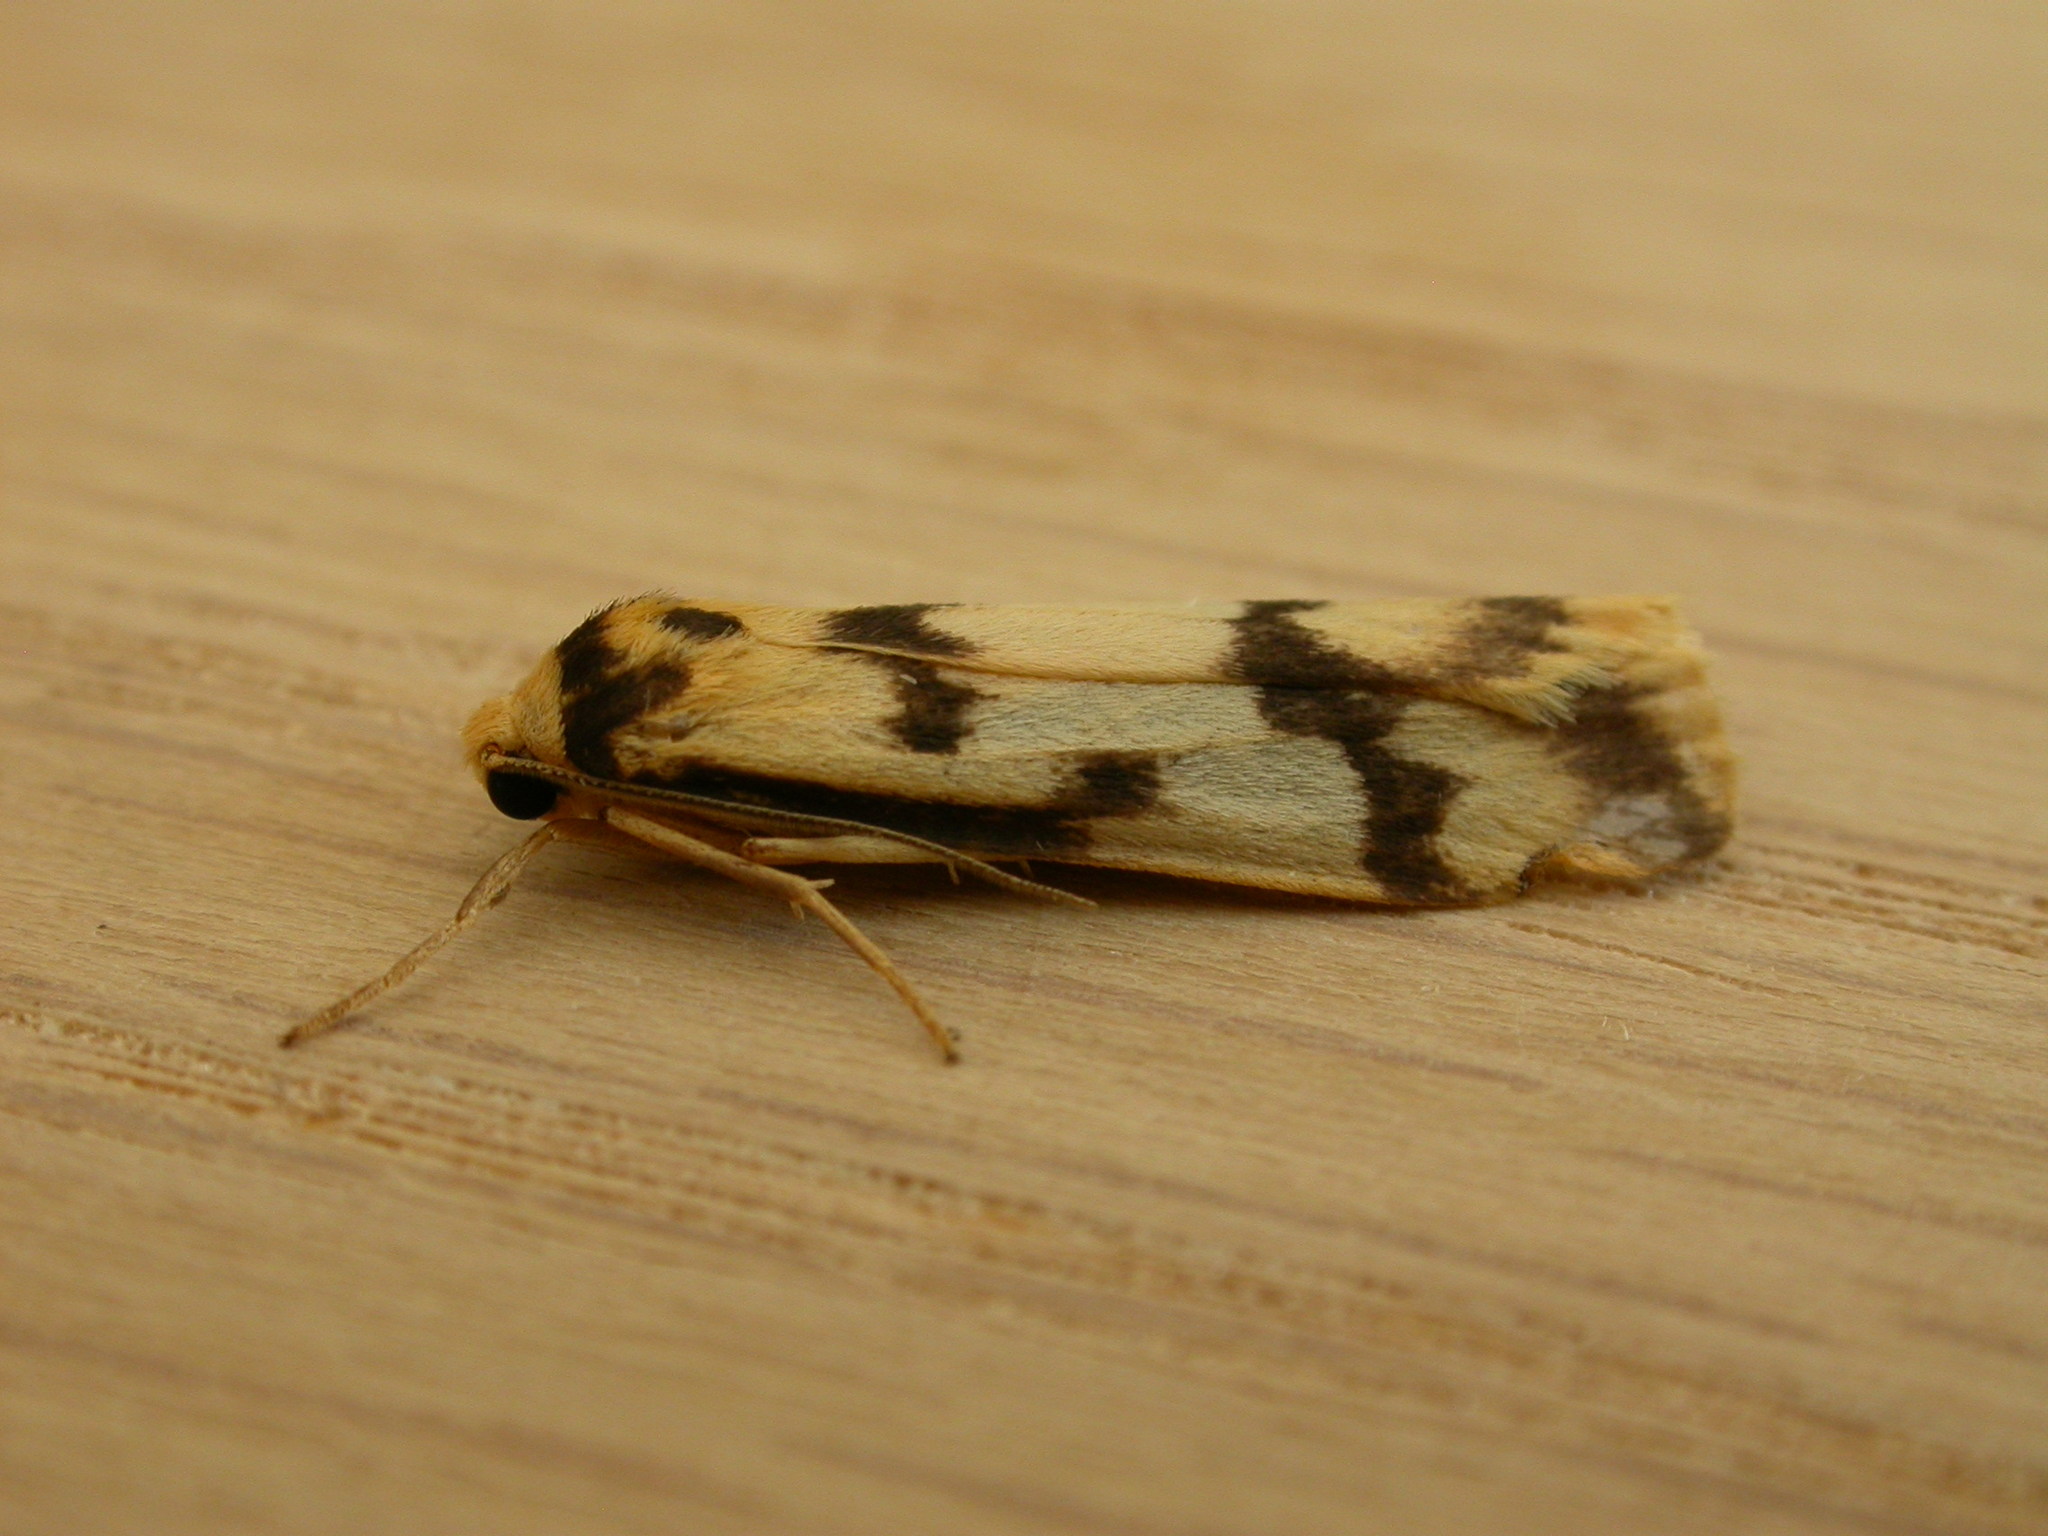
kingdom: Animalia
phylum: Arthropoda
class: Insecta
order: Lepidoptera
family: Erebidae
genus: Tigrioides
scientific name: Tigrioides alterna
